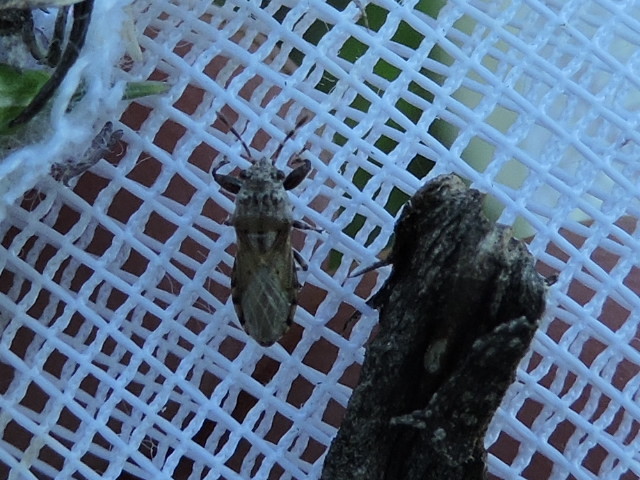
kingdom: Animalia
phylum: Arthropoda
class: Insecta
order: Hemiptera
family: Pachygronthidae
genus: Phlegyas
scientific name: Phlegyas abbreviatus
